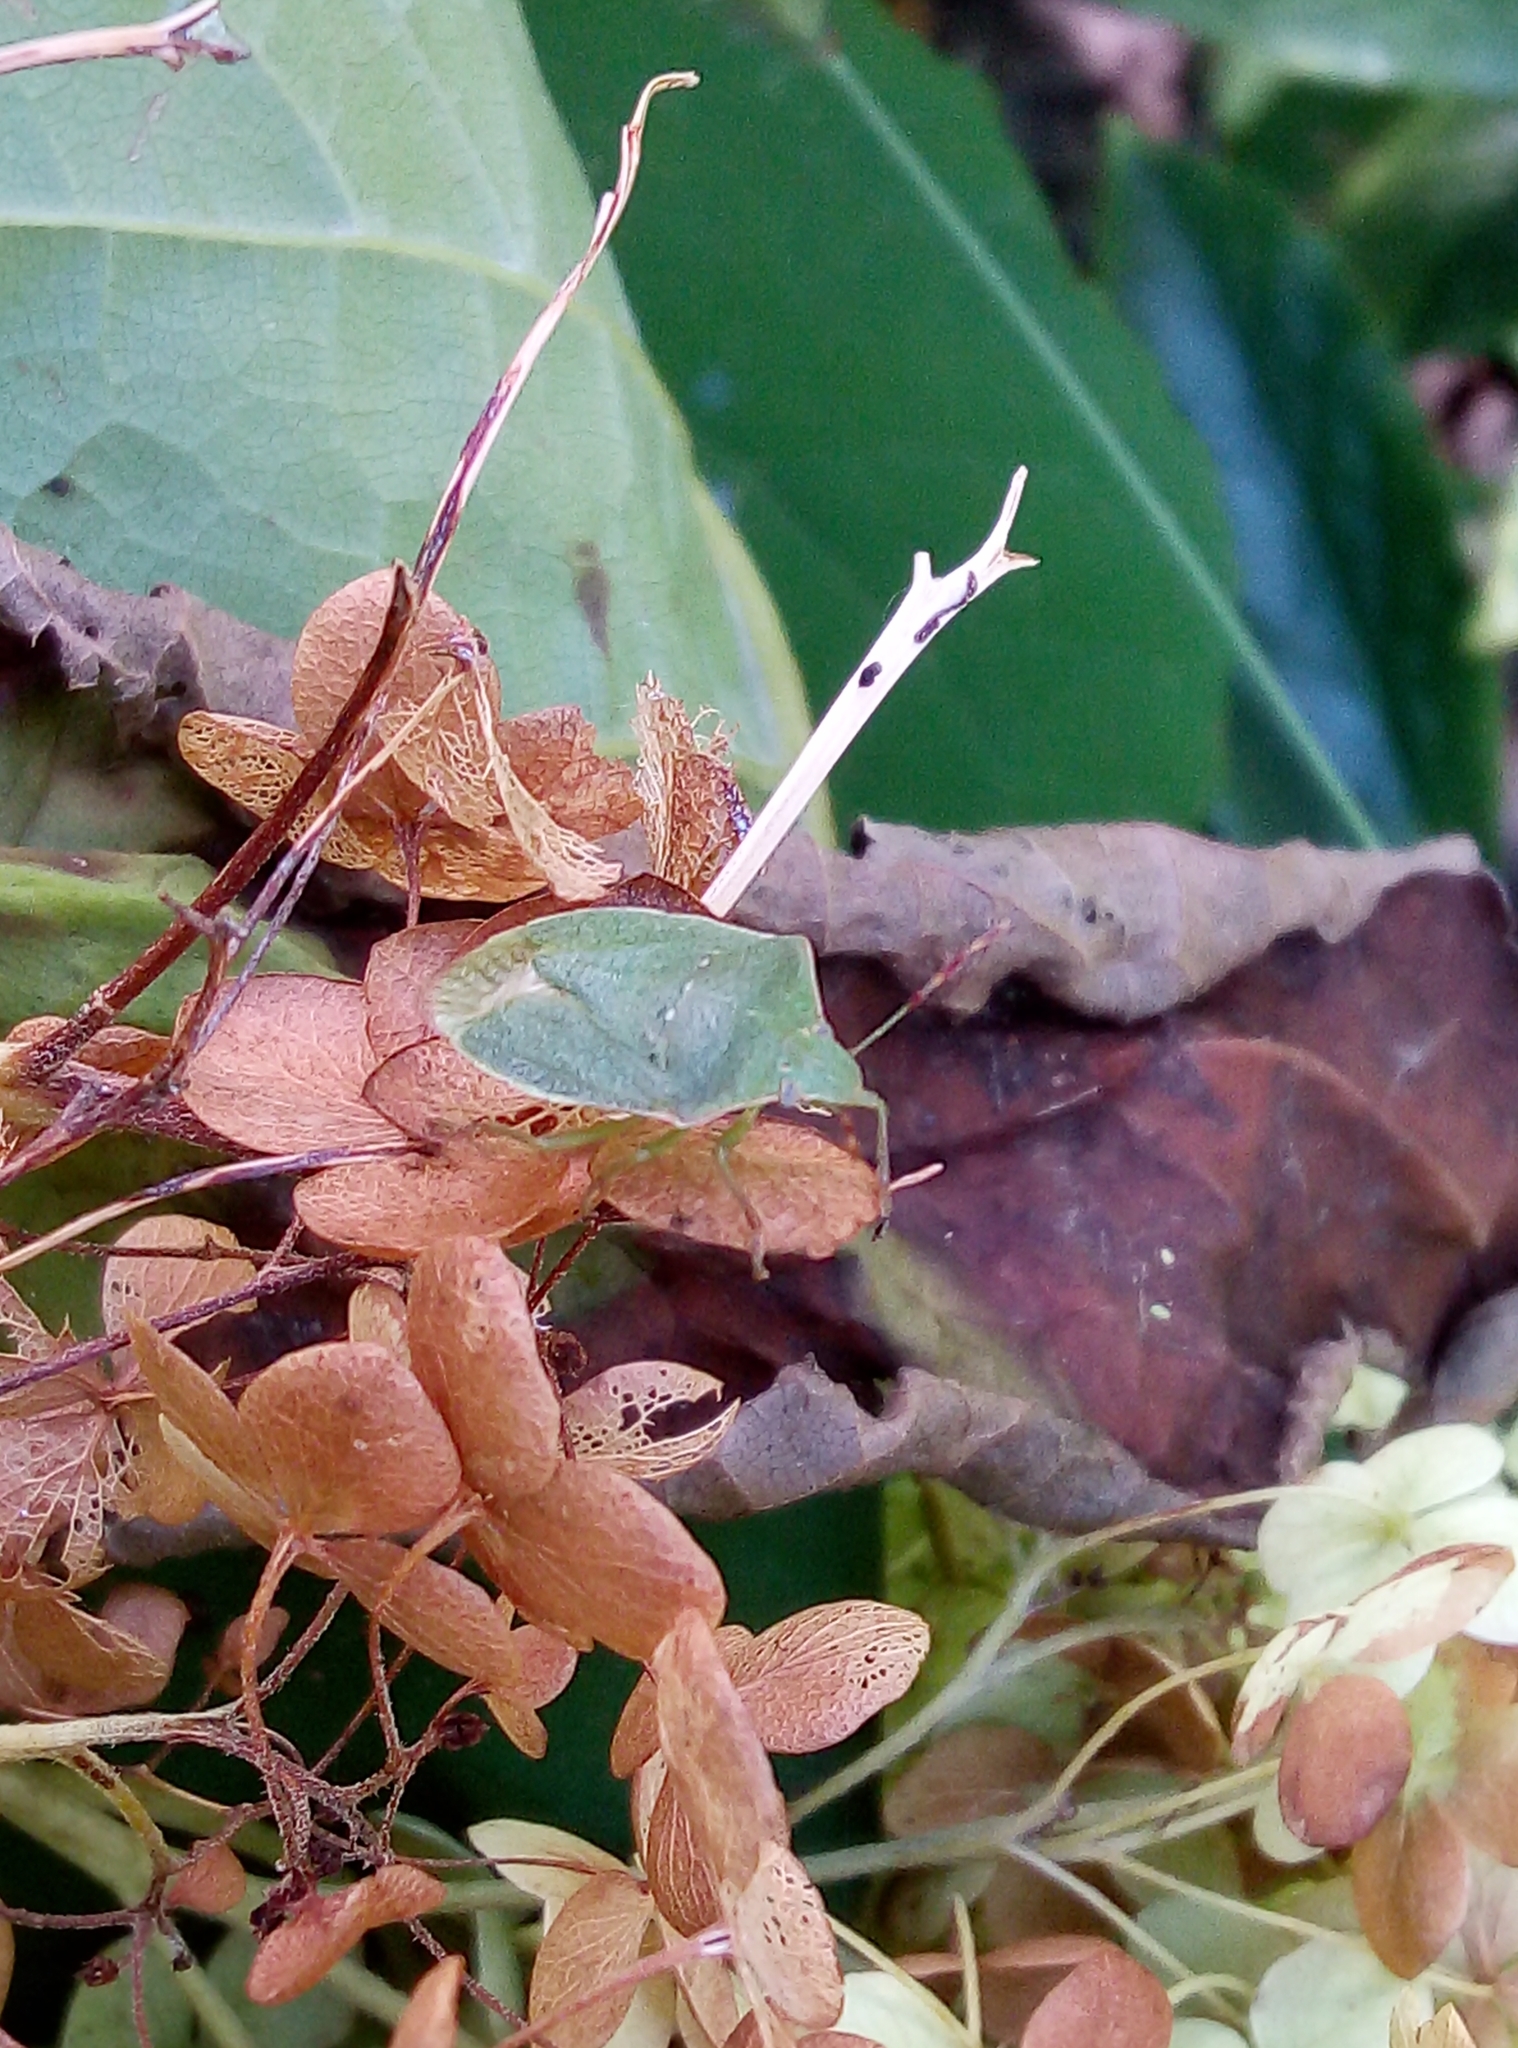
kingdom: Animalia
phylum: Arthropoda
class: Insecta
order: Hemiptera
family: Pentatomidae
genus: Nezara
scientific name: Nezara viridula
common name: Southern green stink bug
